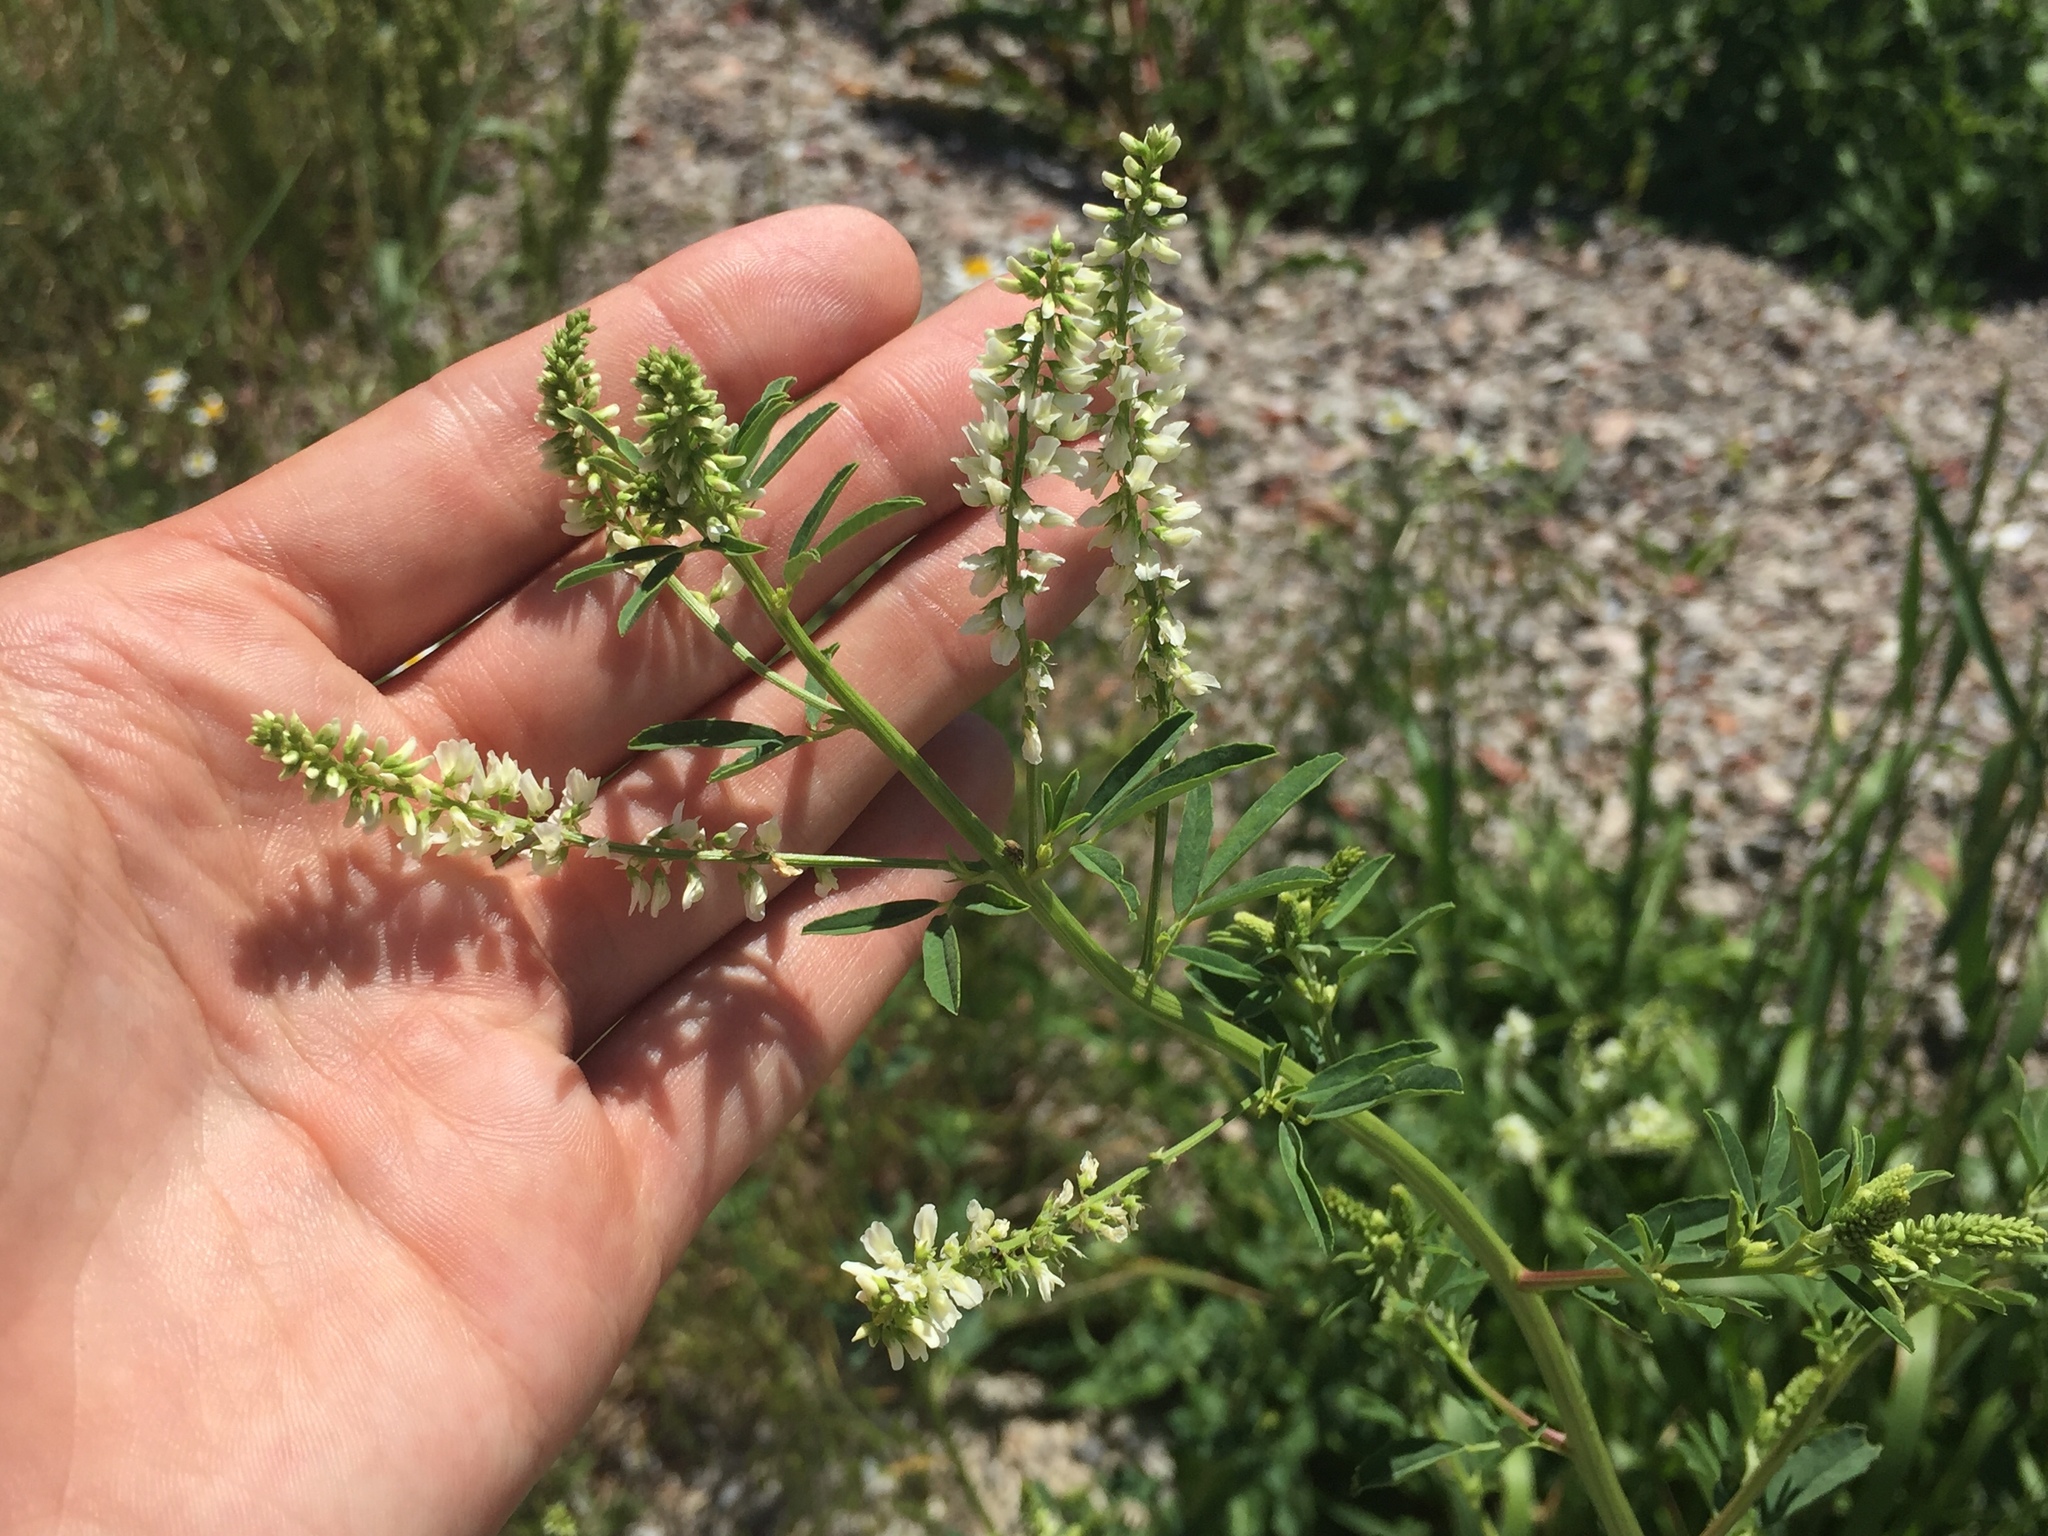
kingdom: Plantae
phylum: Tracheophyta
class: Magnoliopsida
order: Fabales
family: Fabaceae
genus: Melilotus
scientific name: Melilotus albus
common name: White melilot
